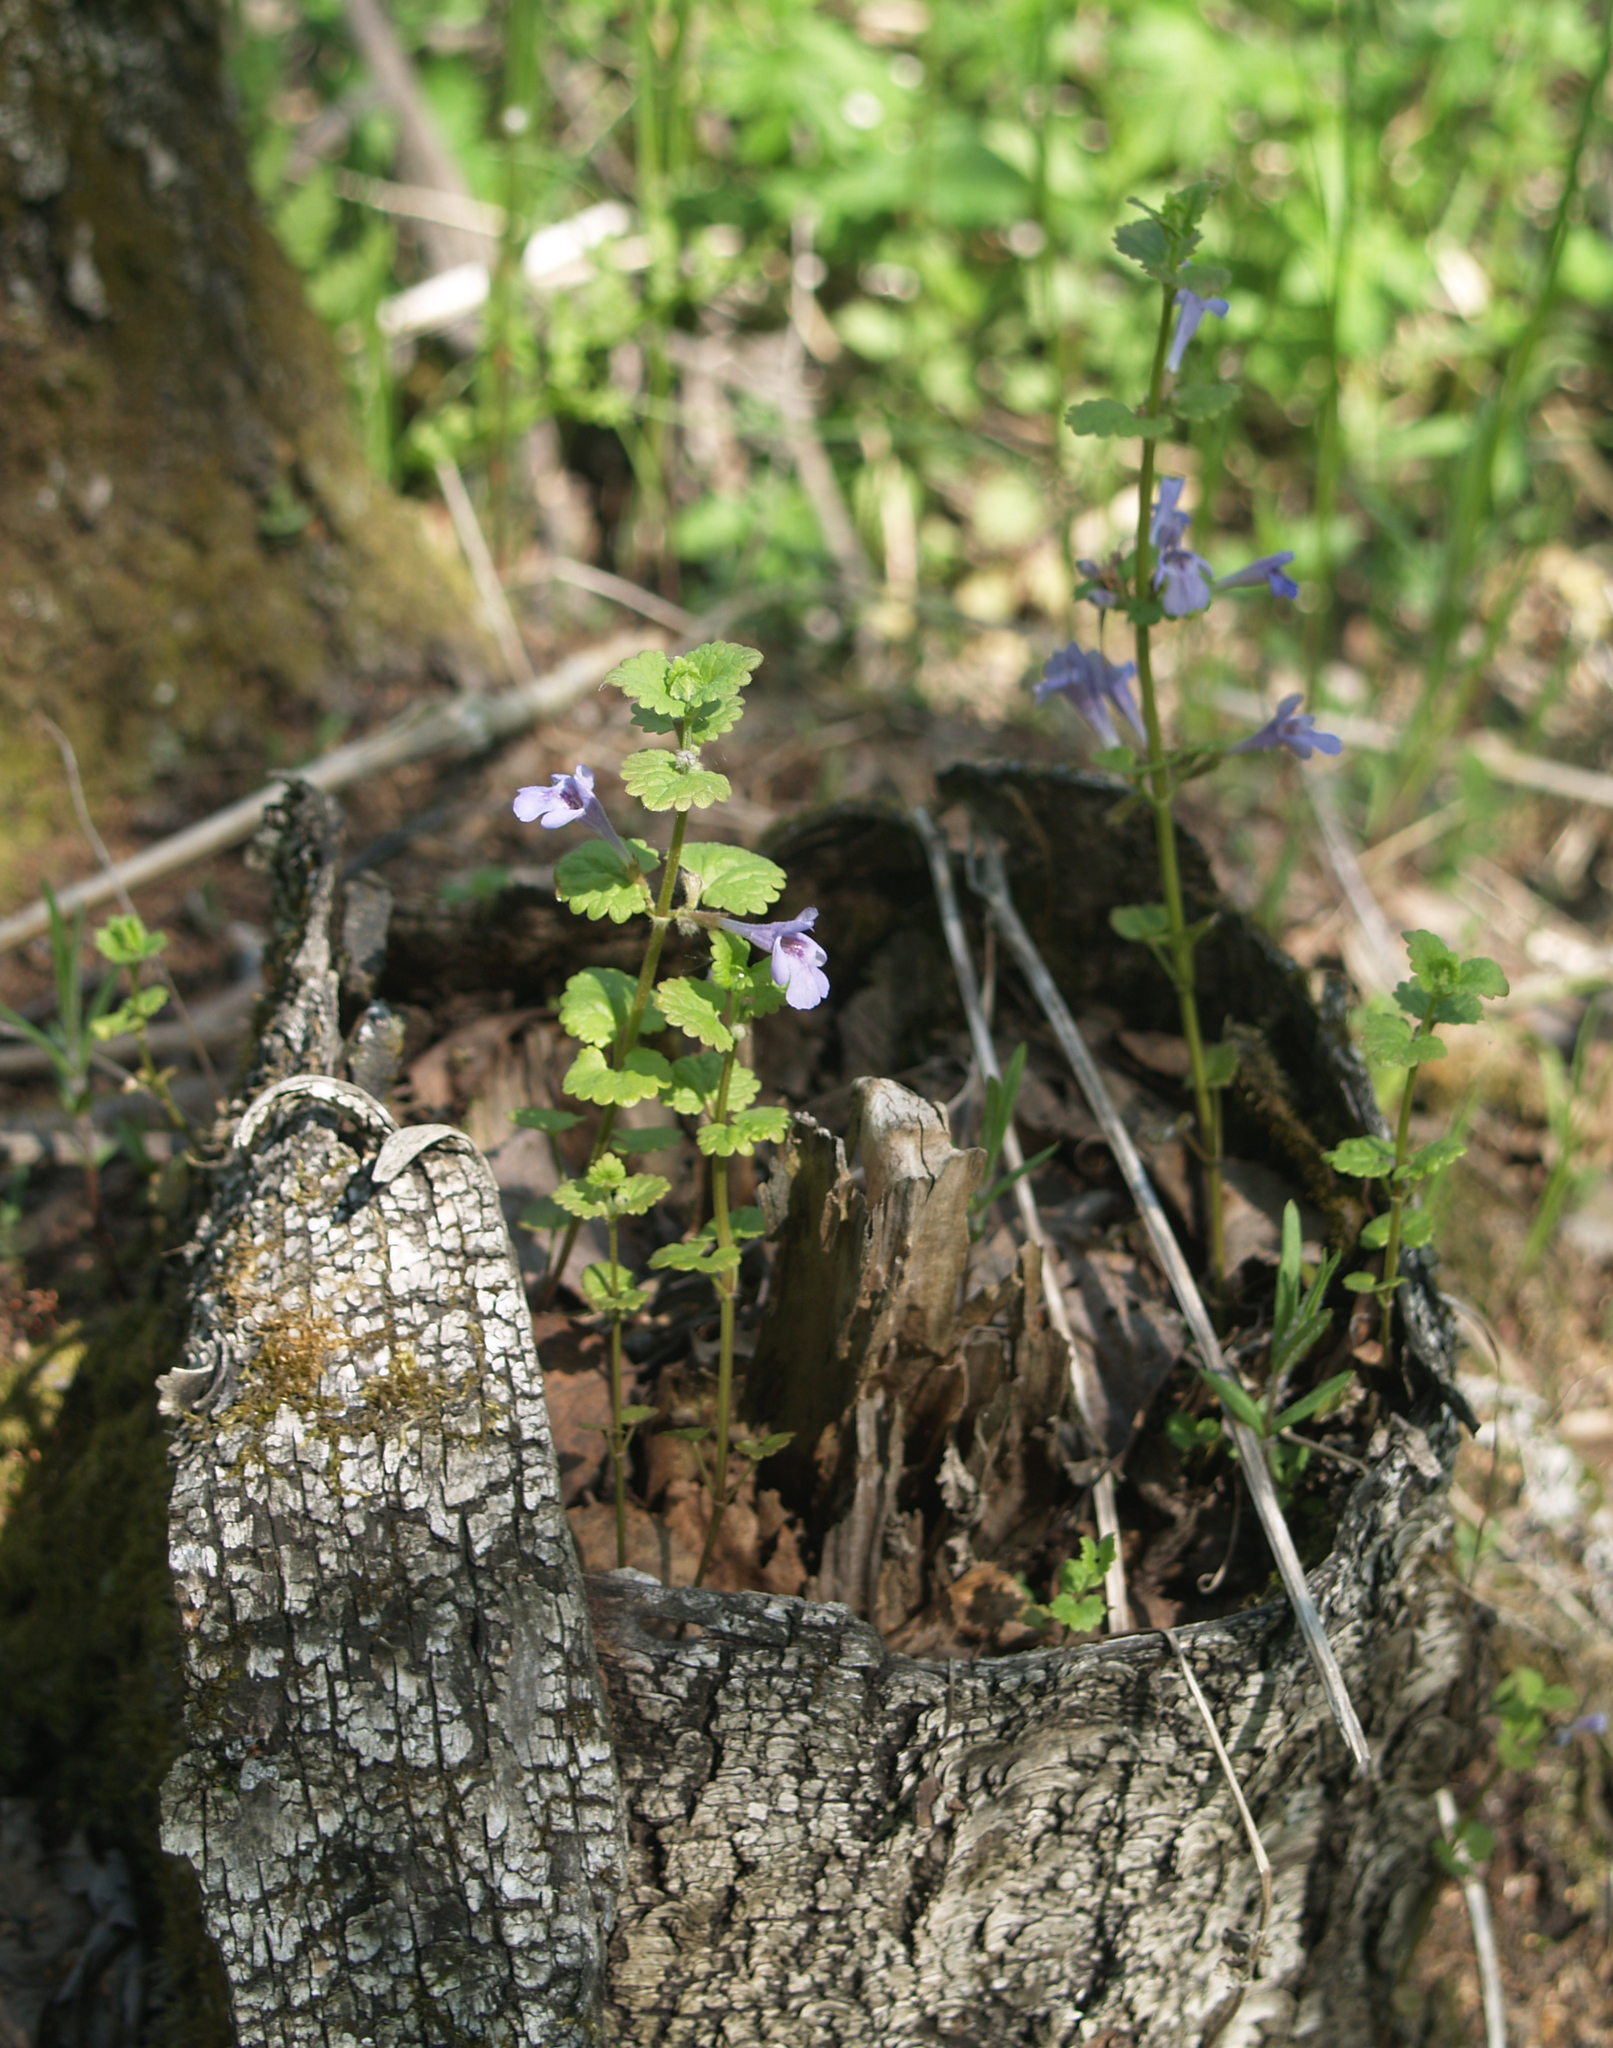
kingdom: Plantae
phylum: Tracheophyta
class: Magnoliopsida
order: Lamiales
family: Lamiaceae
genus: Glechoma
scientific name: Glechoma hederacea
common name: Ground ivy
